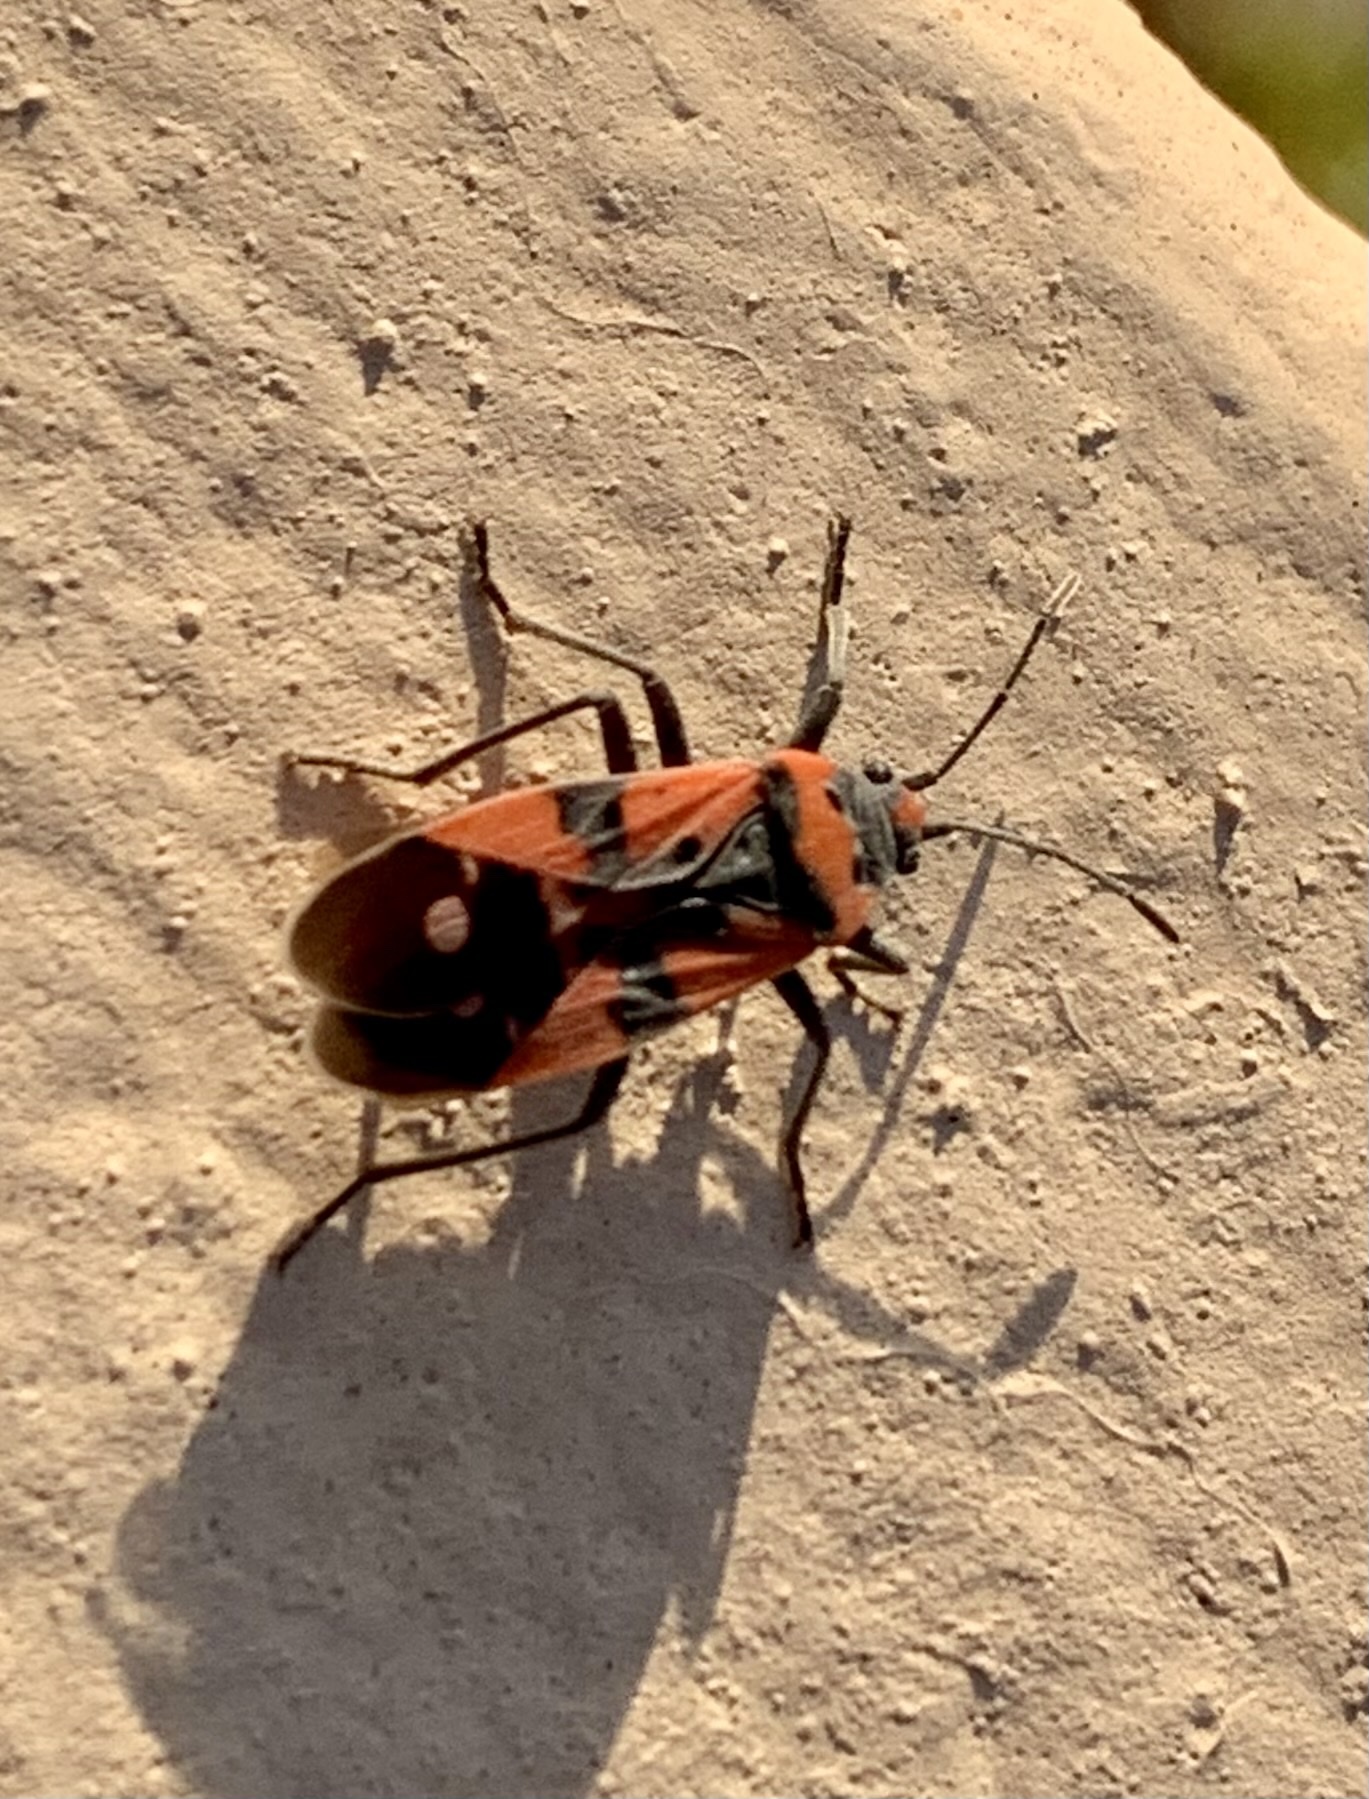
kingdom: Animalia
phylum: Arthropoda
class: Insecta
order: Hemiptera
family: Lygaeidae
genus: Lygaeus
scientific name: Lygaeus equestris
